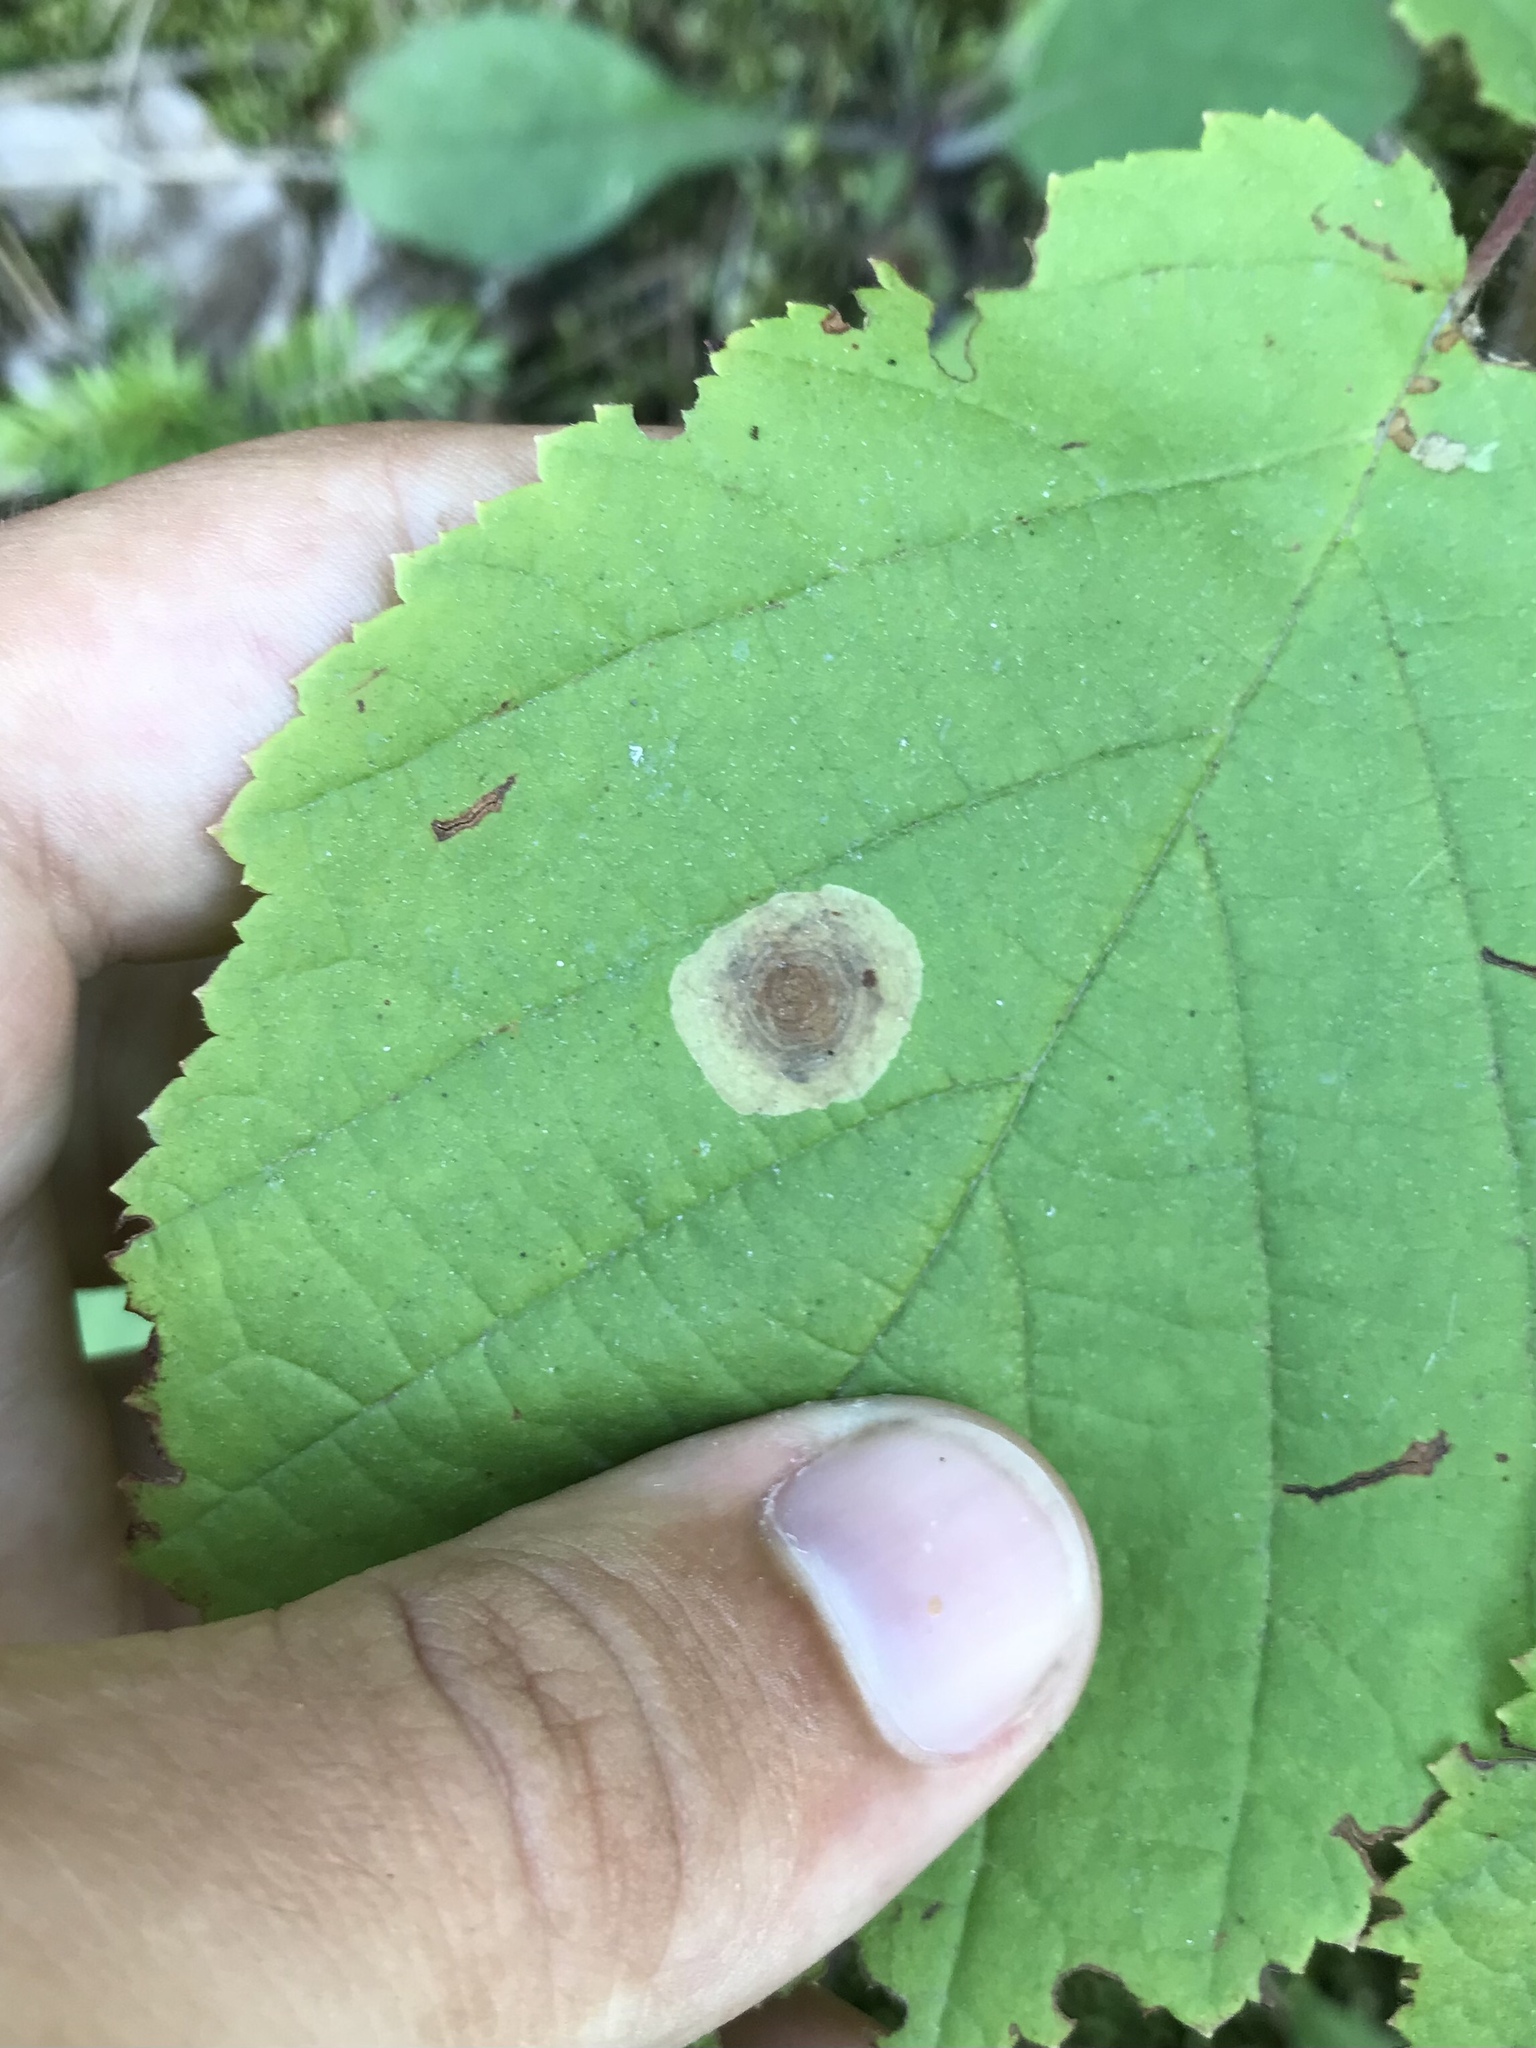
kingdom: Animalia
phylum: Arthropoda
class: Insecta
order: Lepidoptera
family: Gracillariidae
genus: Cameraria
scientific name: Cameraria corylisella
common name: Hazel blotchminer
